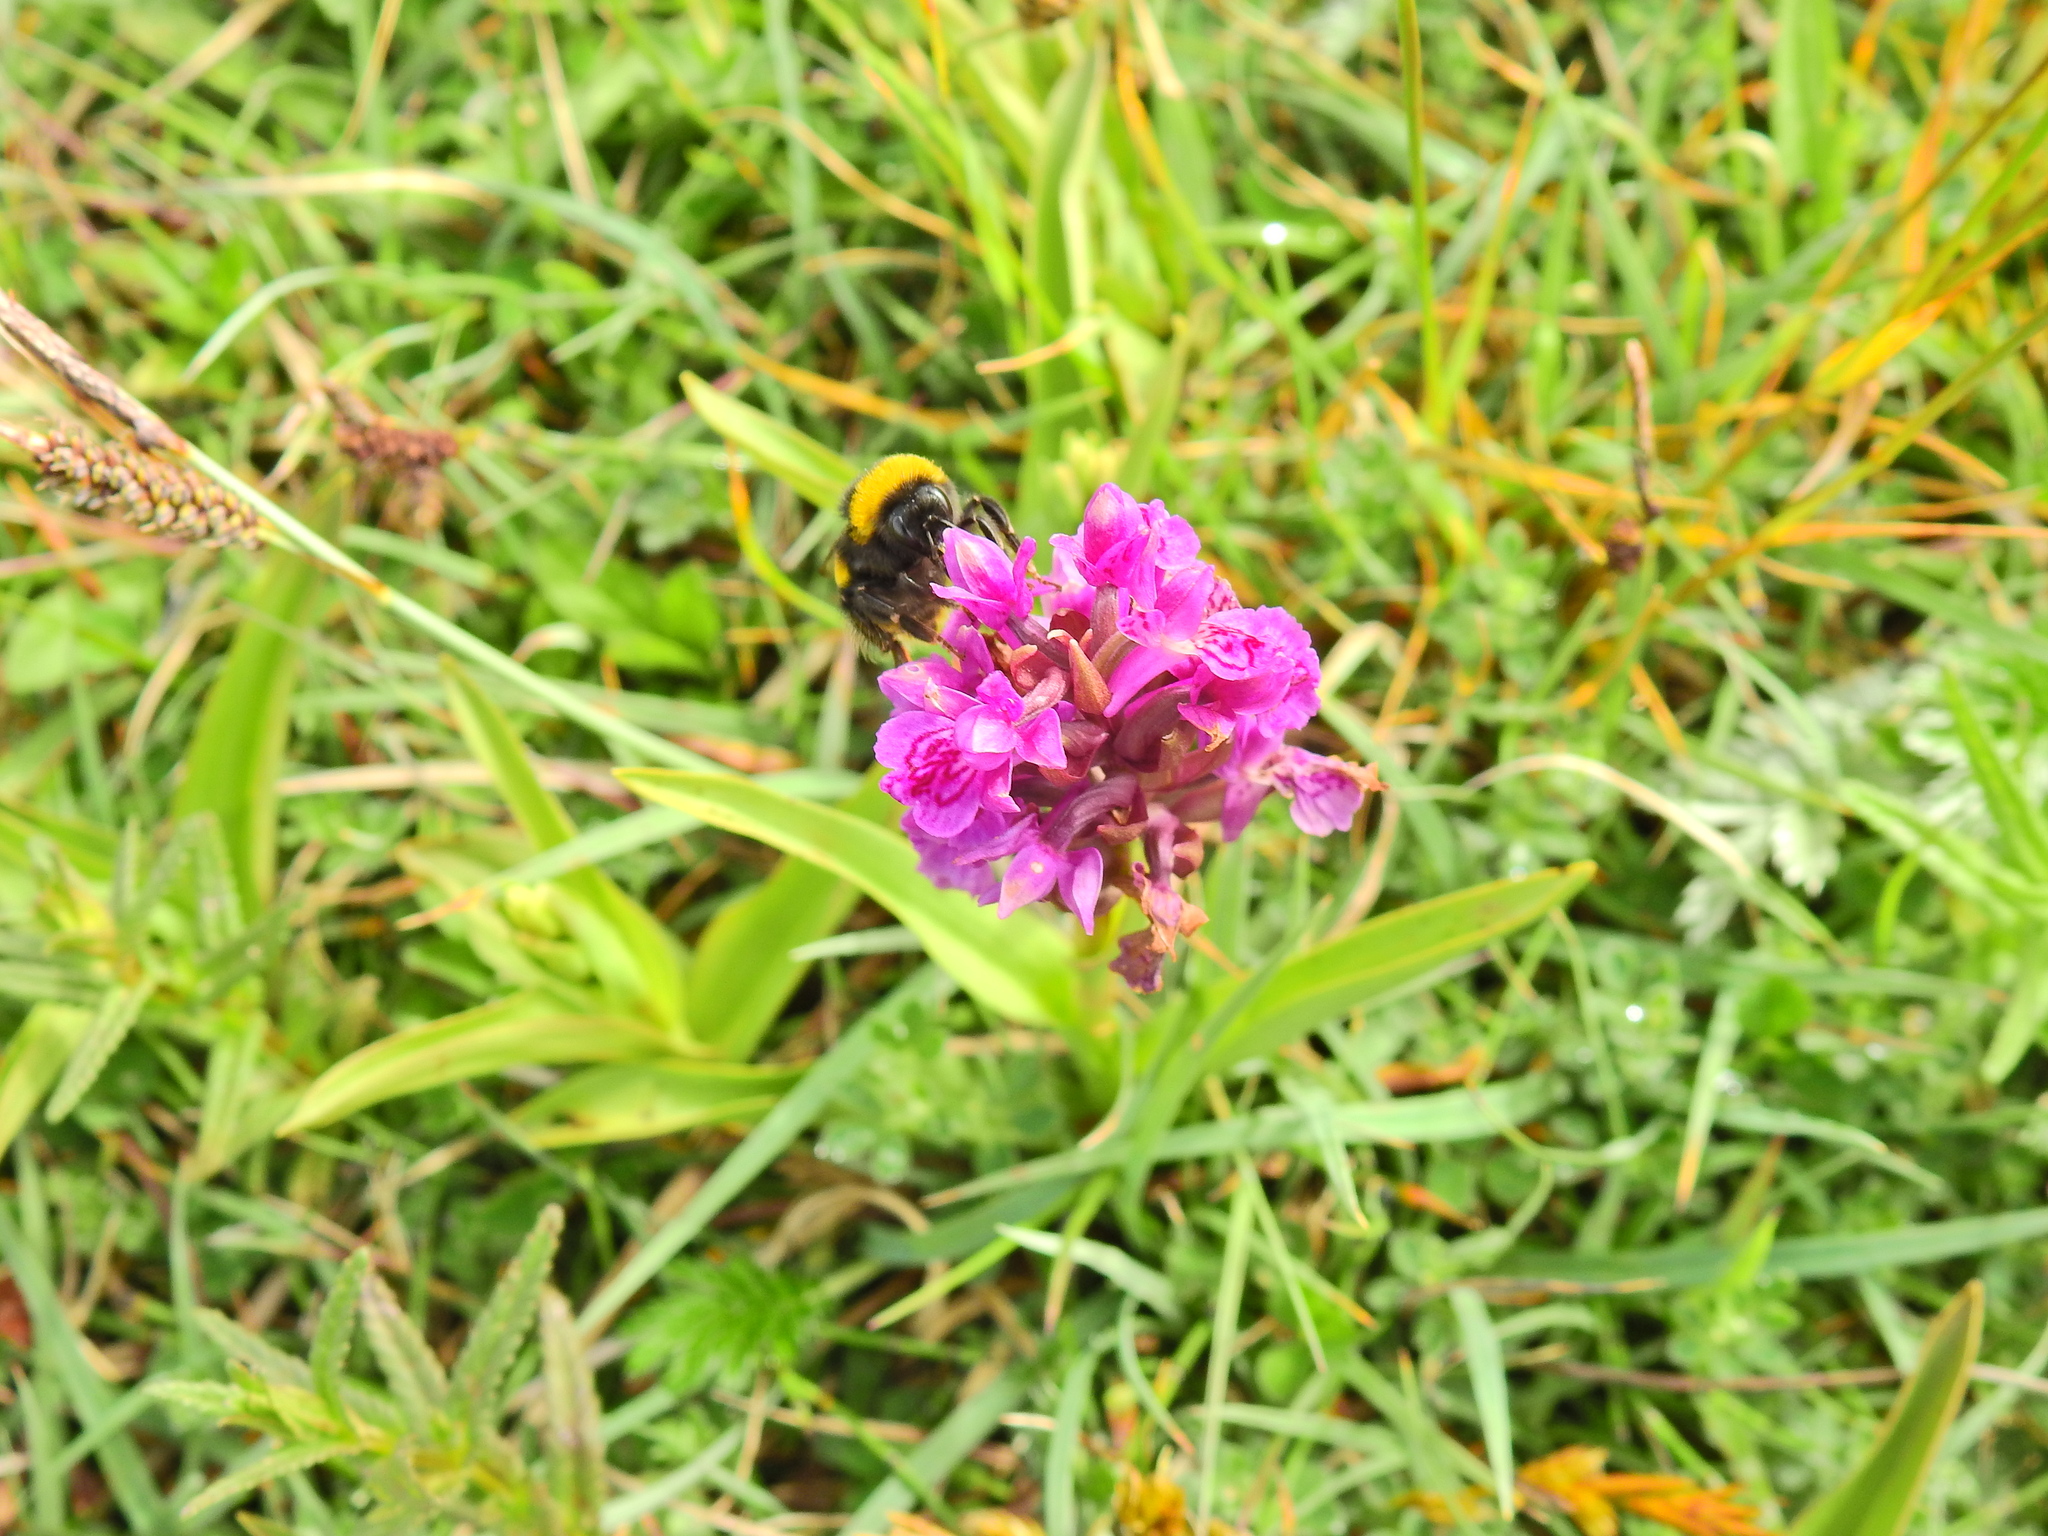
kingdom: Animalia
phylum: Arthropoda
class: Insecta
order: Hymenoptera
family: Apidae
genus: Bombus
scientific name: Bombus terrestris
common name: Buff-tailed bumblebee
